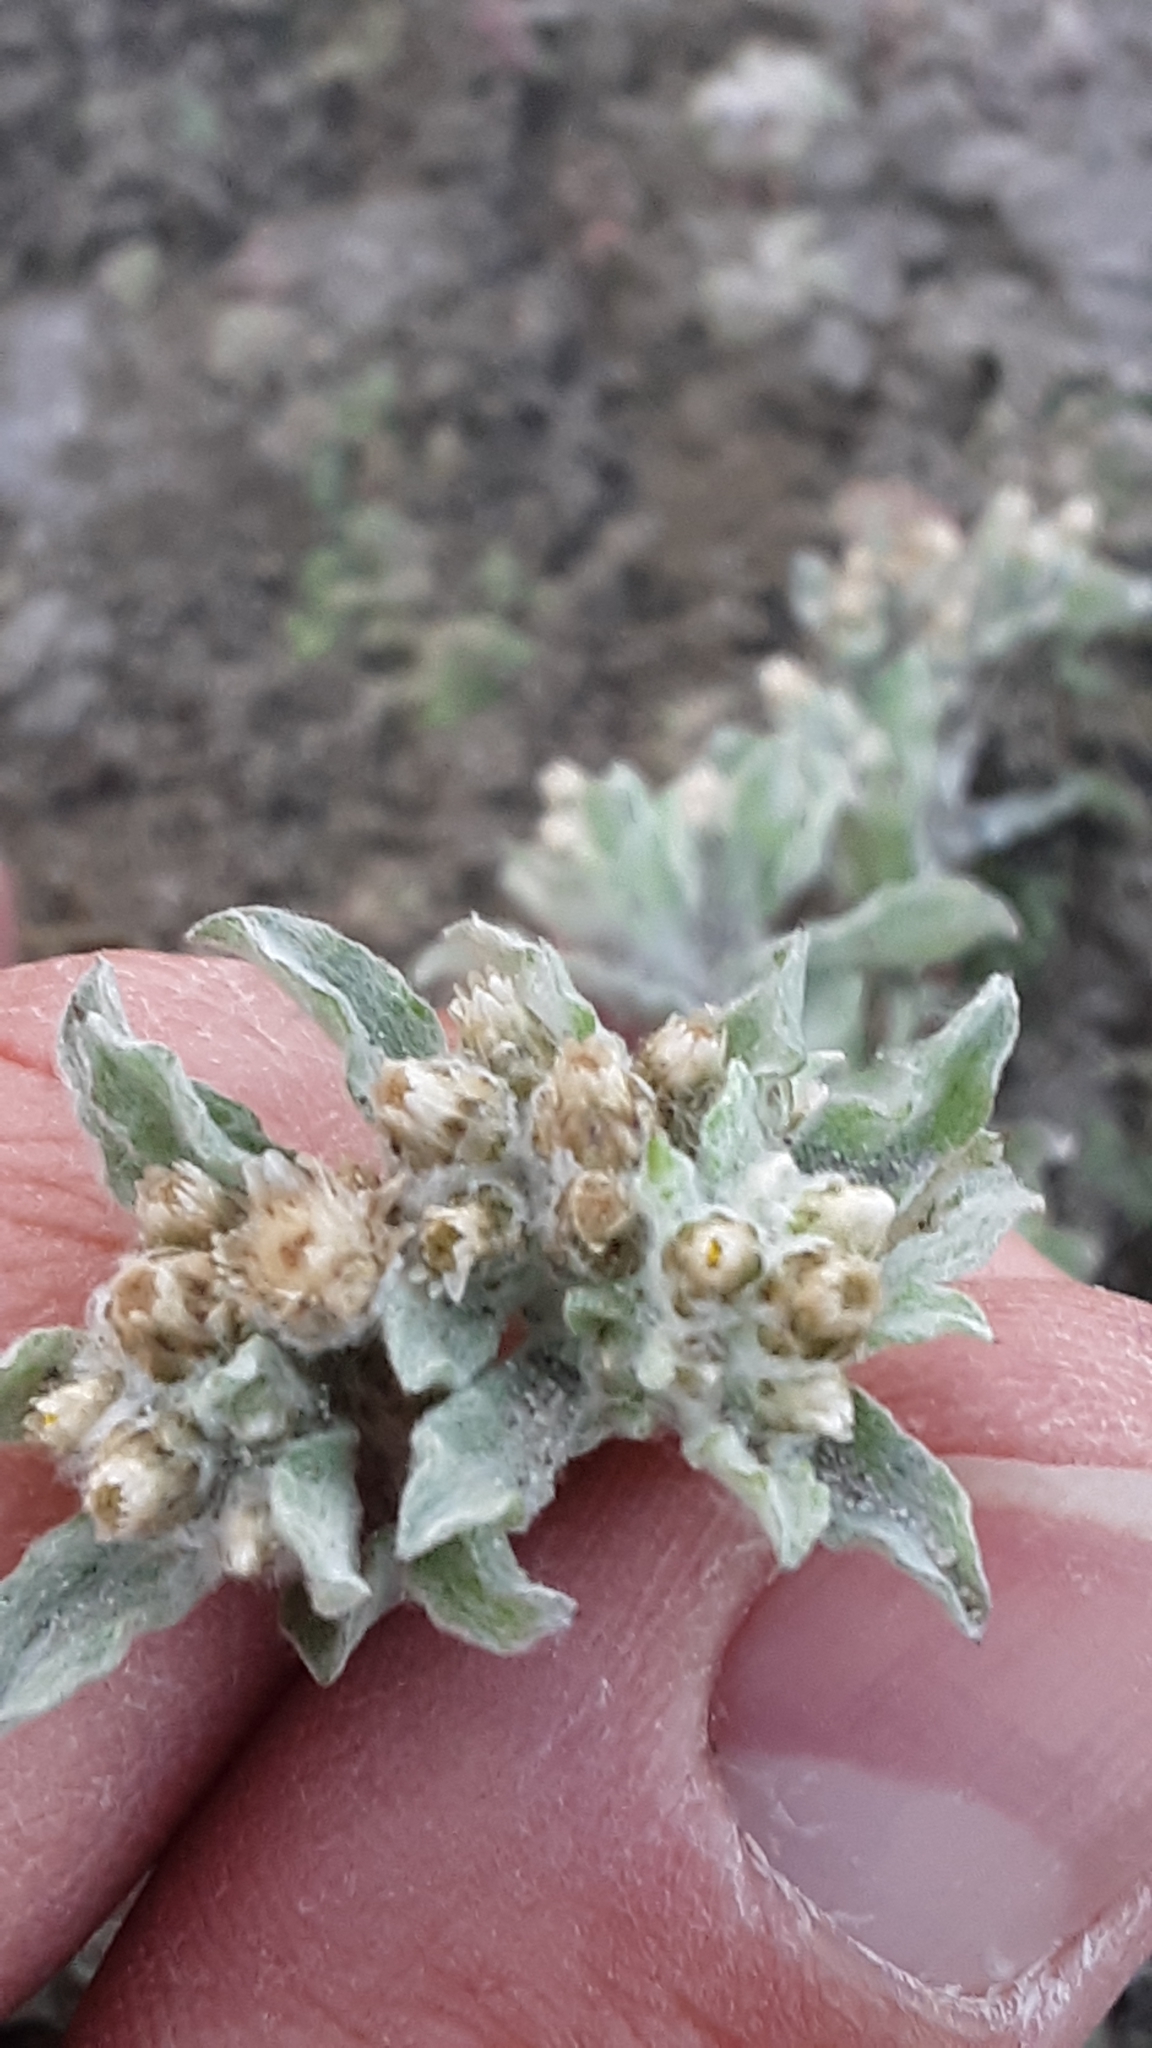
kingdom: Plantae
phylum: Tracheophyta
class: Magnoliopsida
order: Asterales
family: Asteraceae
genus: Gnaphalium
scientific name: Gnaphalium palustre
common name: Western marsh cudweed
